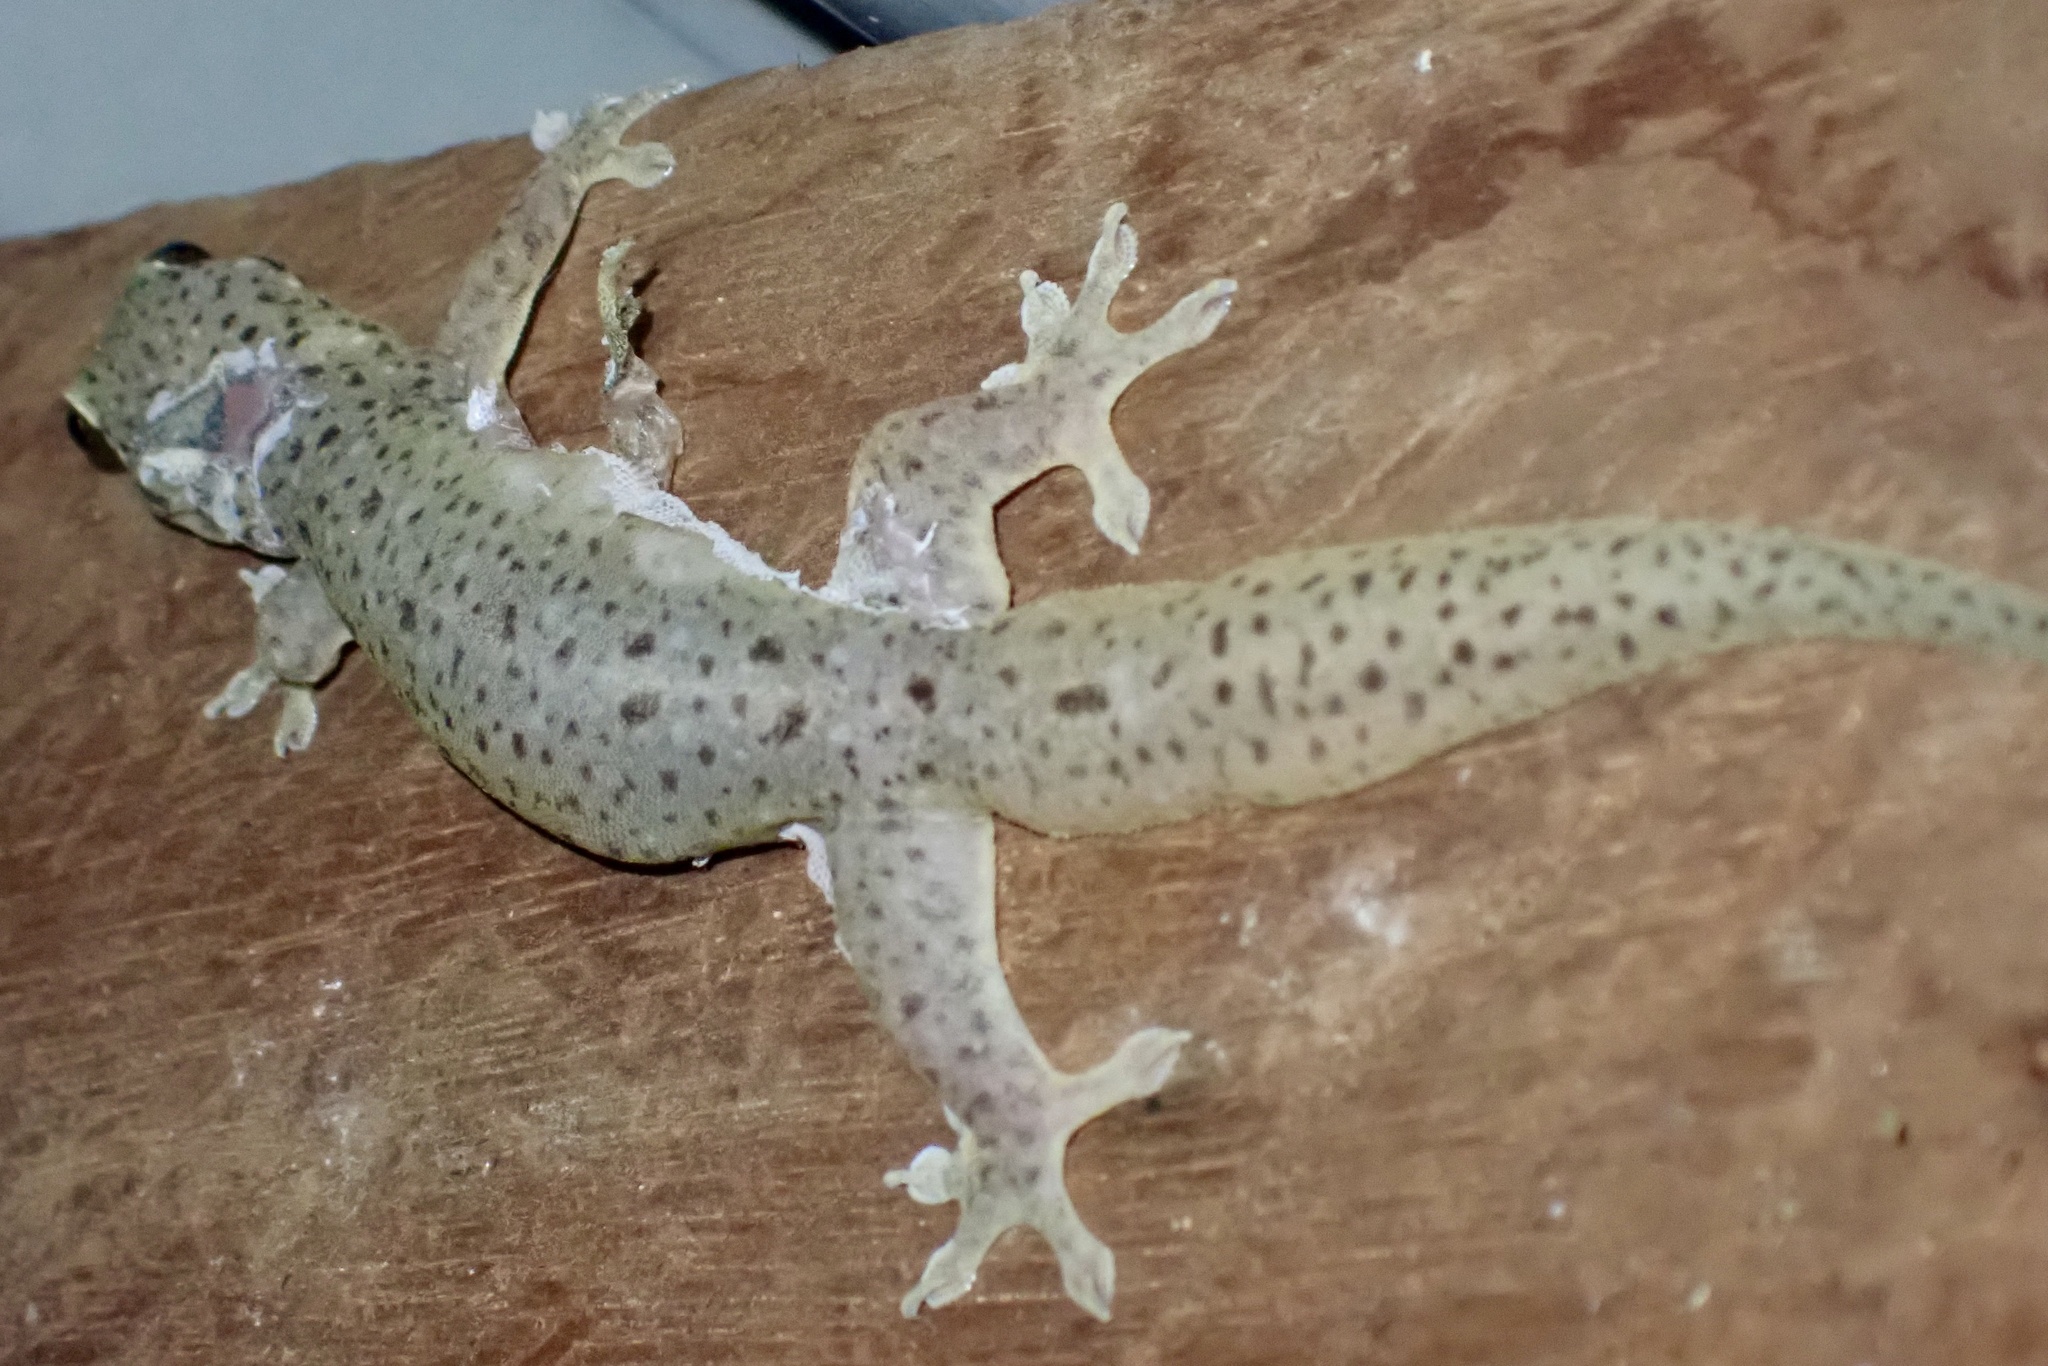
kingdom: Animalia
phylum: Chordata
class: Squamata
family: Gekkonidae
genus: Gehyra
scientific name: Gehyra mutilata
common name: Stump-toed gecko
